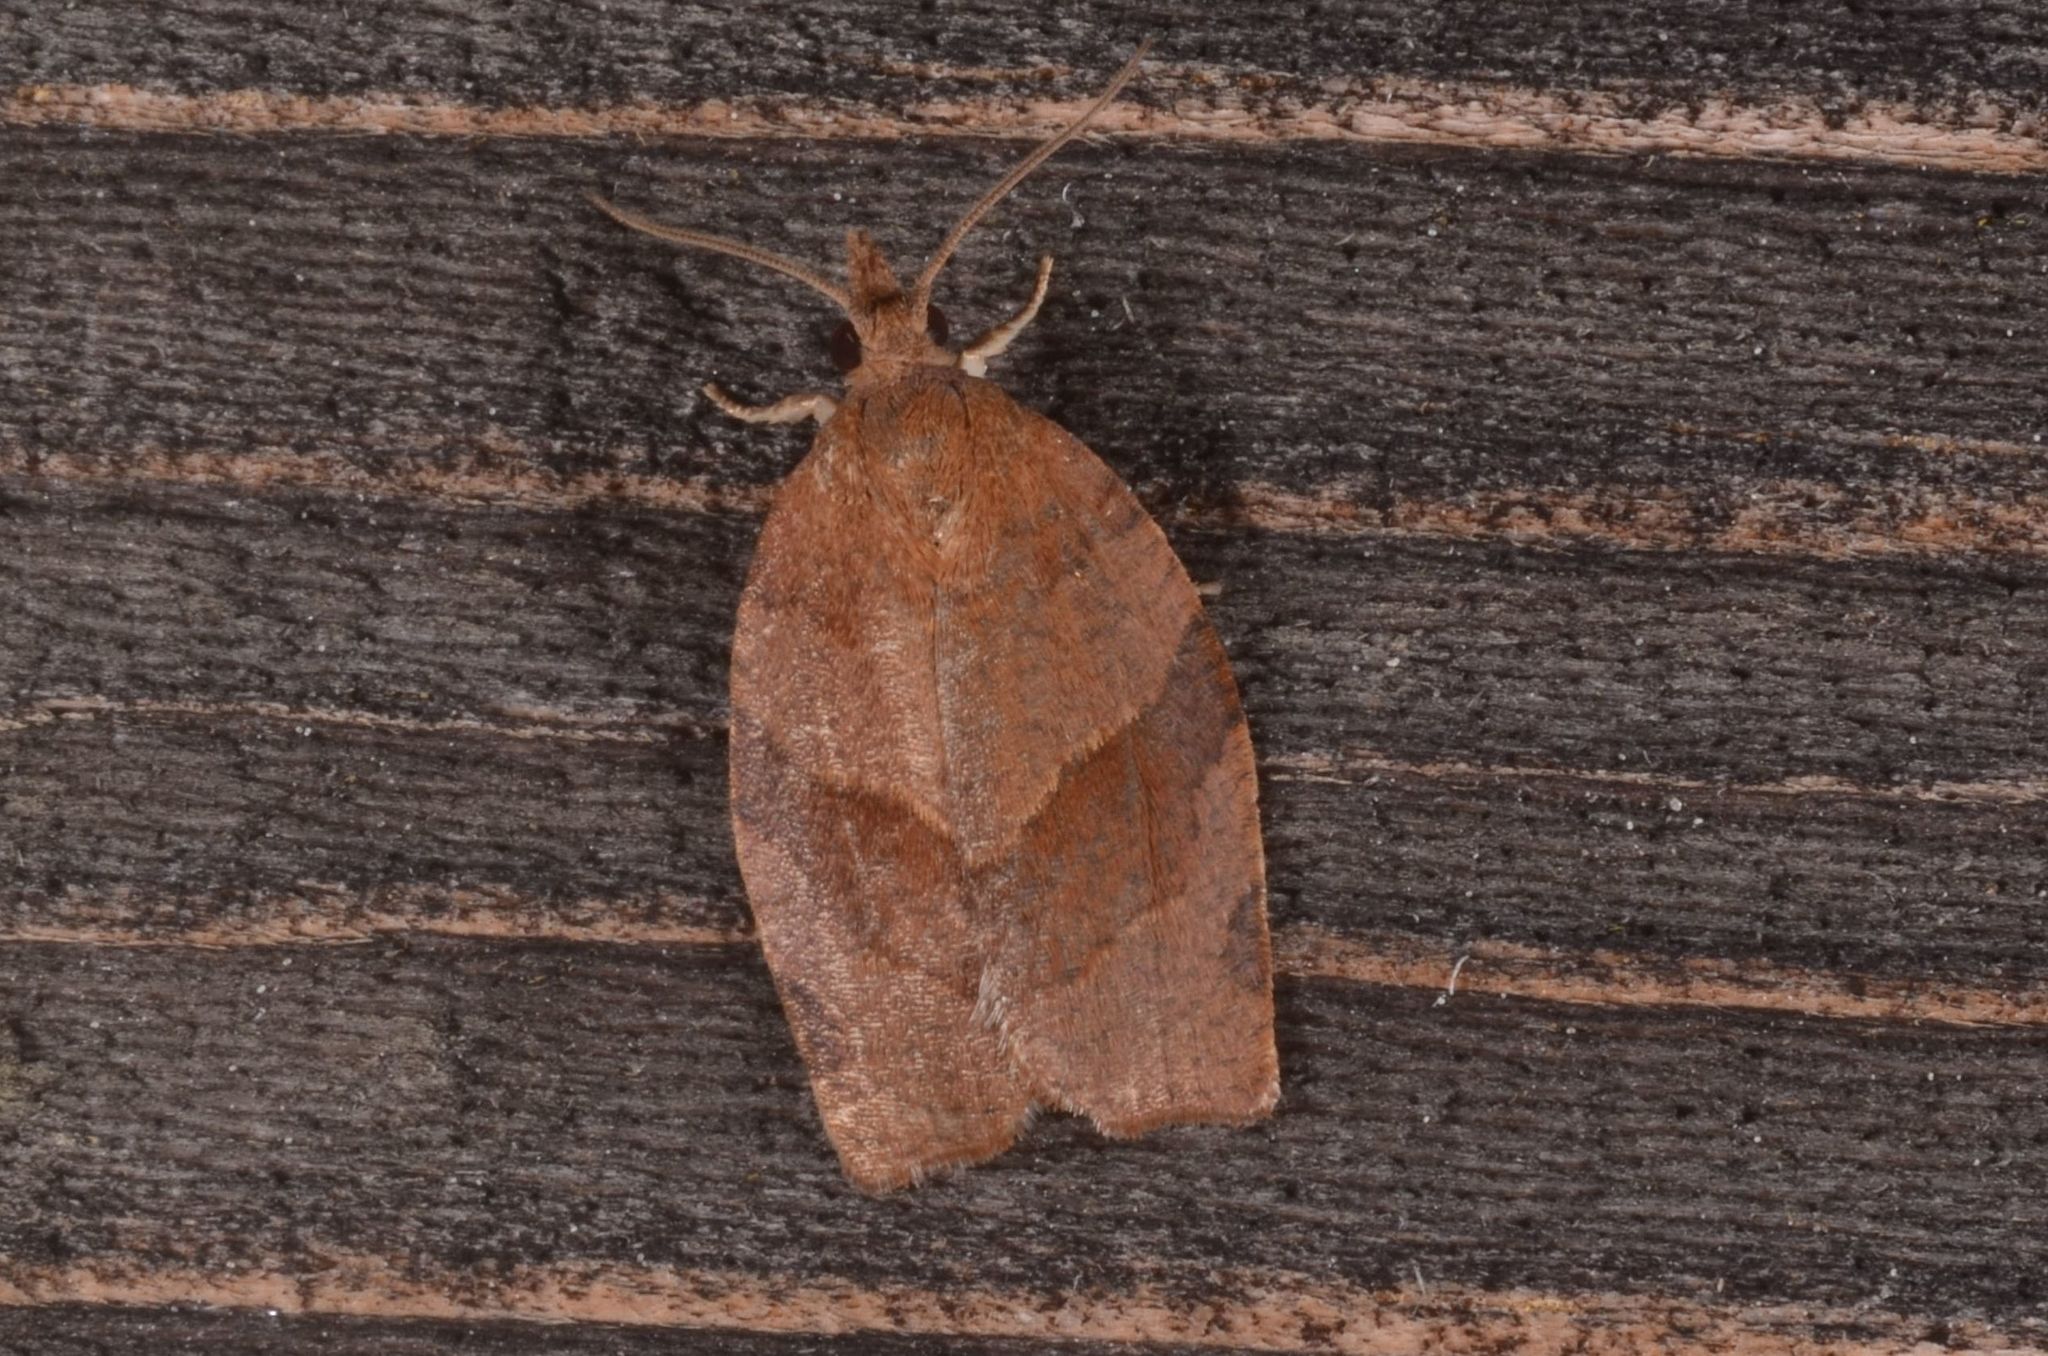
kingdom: Animalia
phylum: Arthropoda
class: Insecta
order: Lepidoptera
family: Tortricidae
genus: Pandemis
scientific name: Pandemis heparana
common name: Dark fruit-tree tortrix
